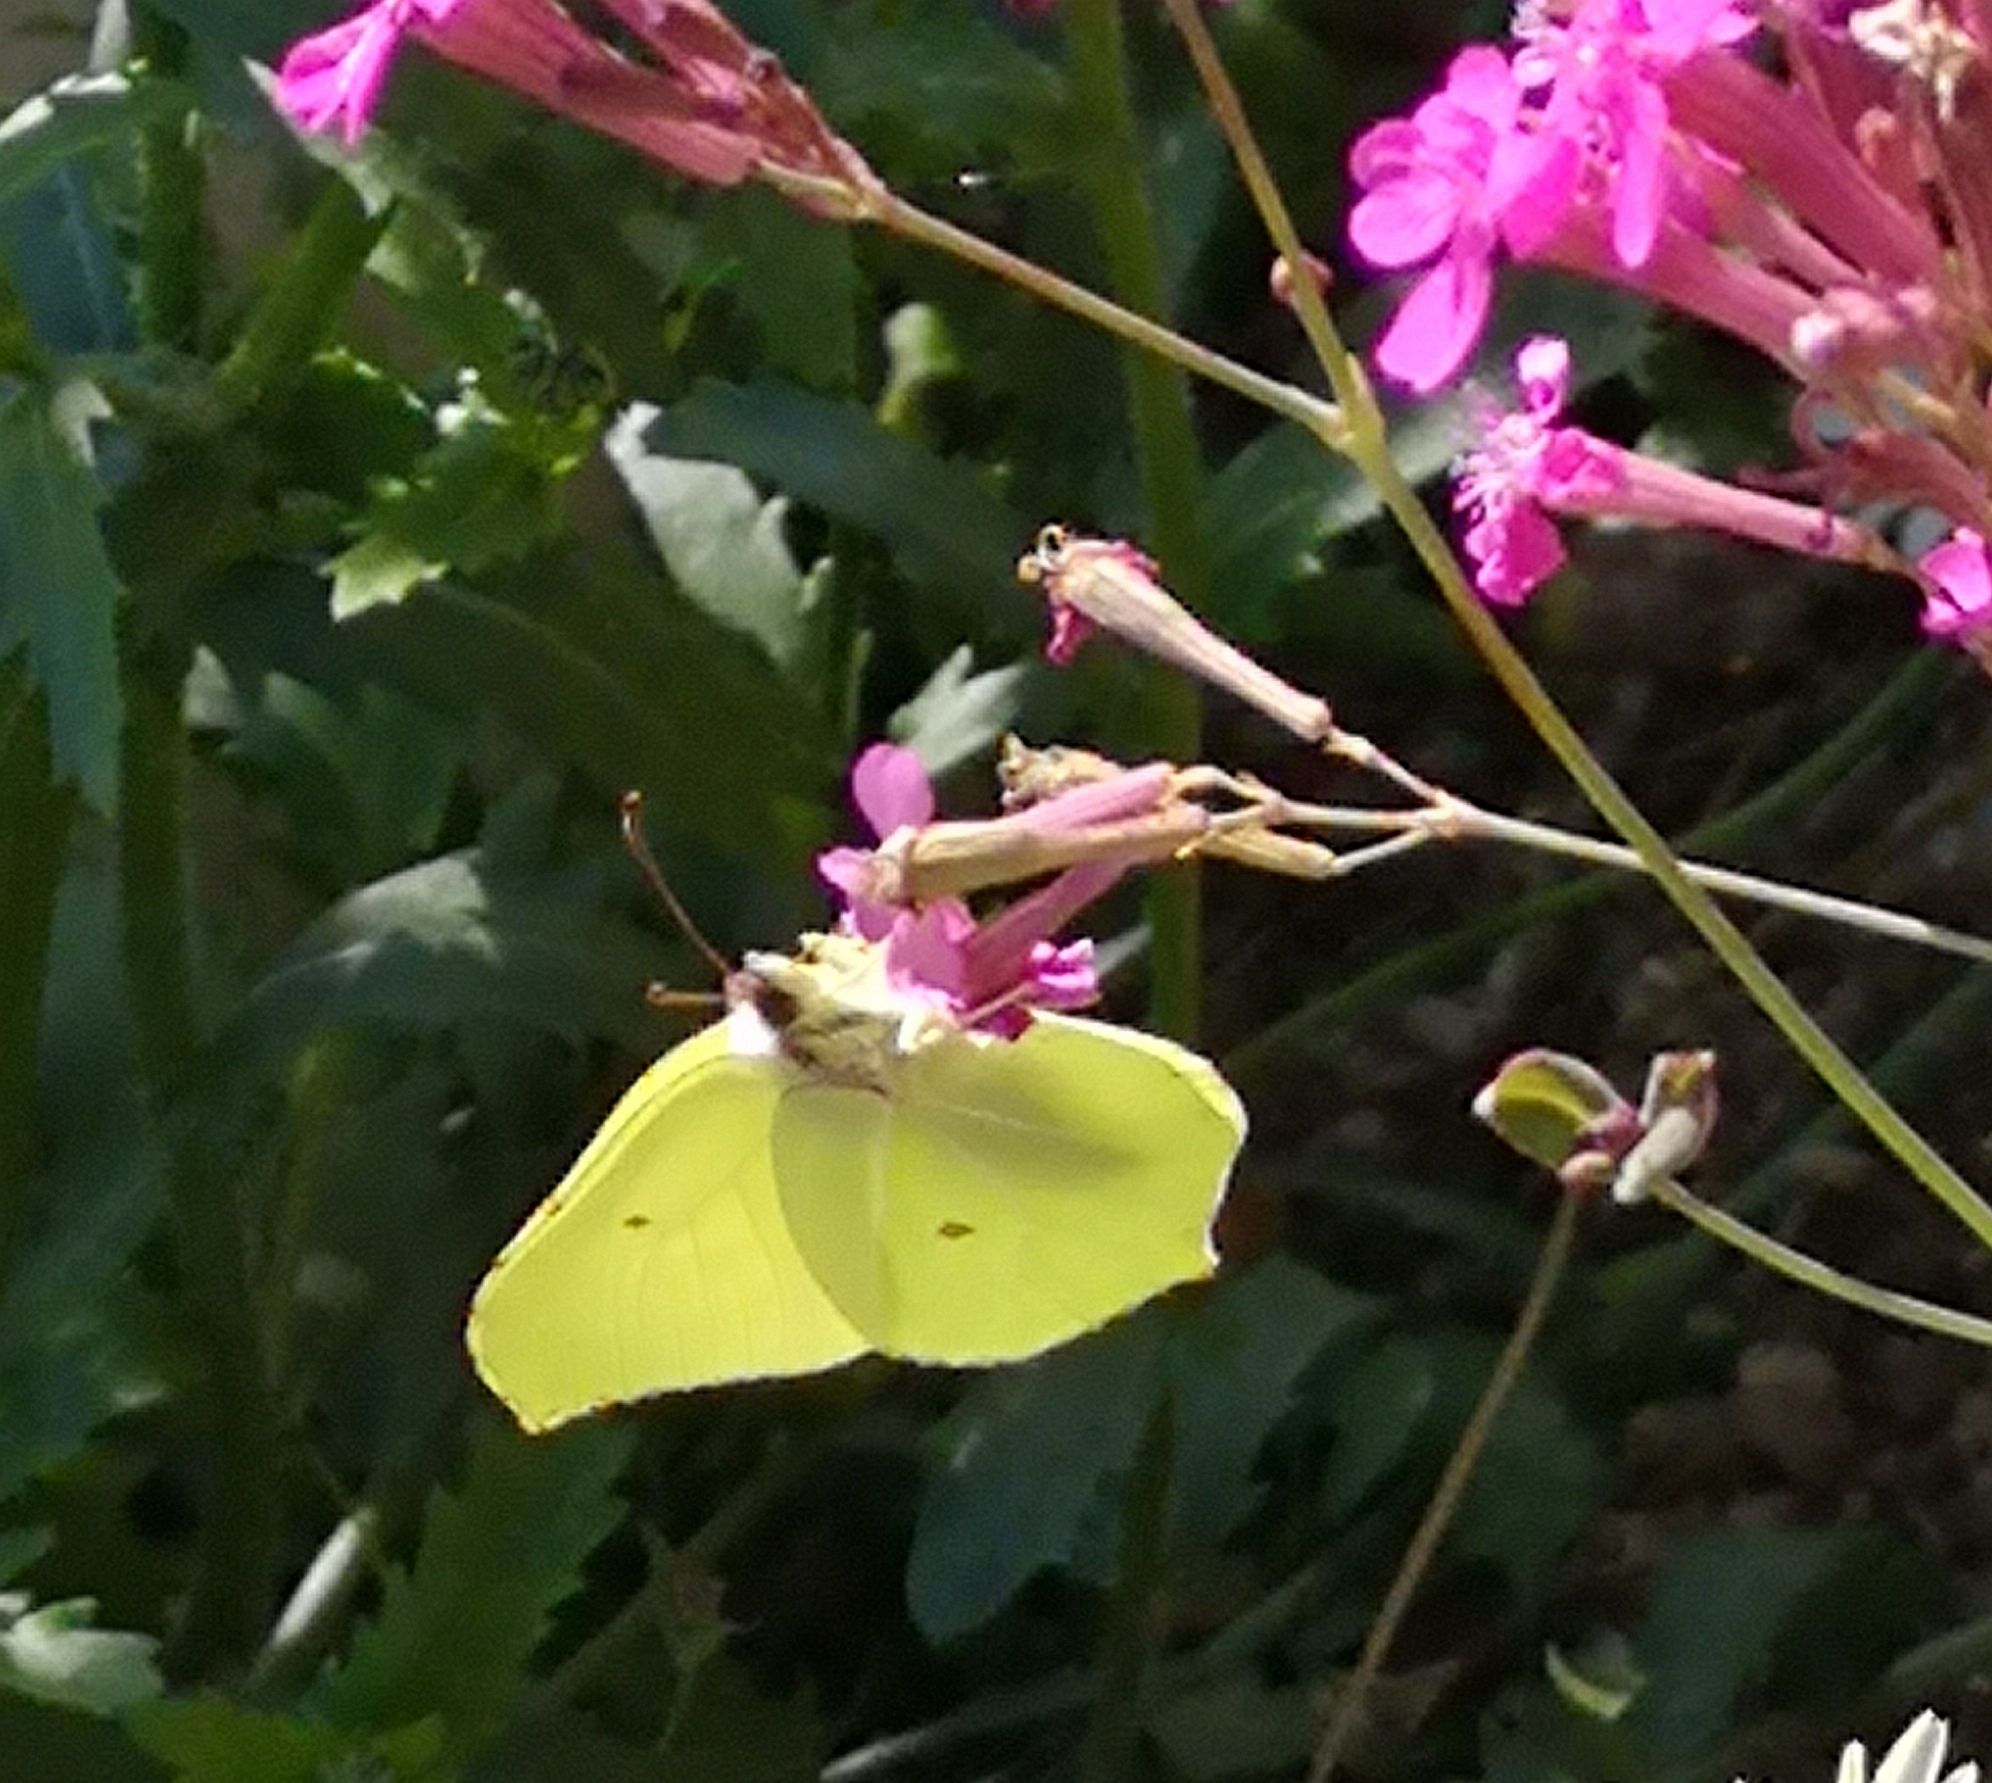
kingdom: Animalia
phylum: Arthropoda
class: Insecta
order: Lepidoptera
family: Pieridae
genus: Gonepteryx
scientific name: Gonepteryx rhamni
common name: Brimstone
